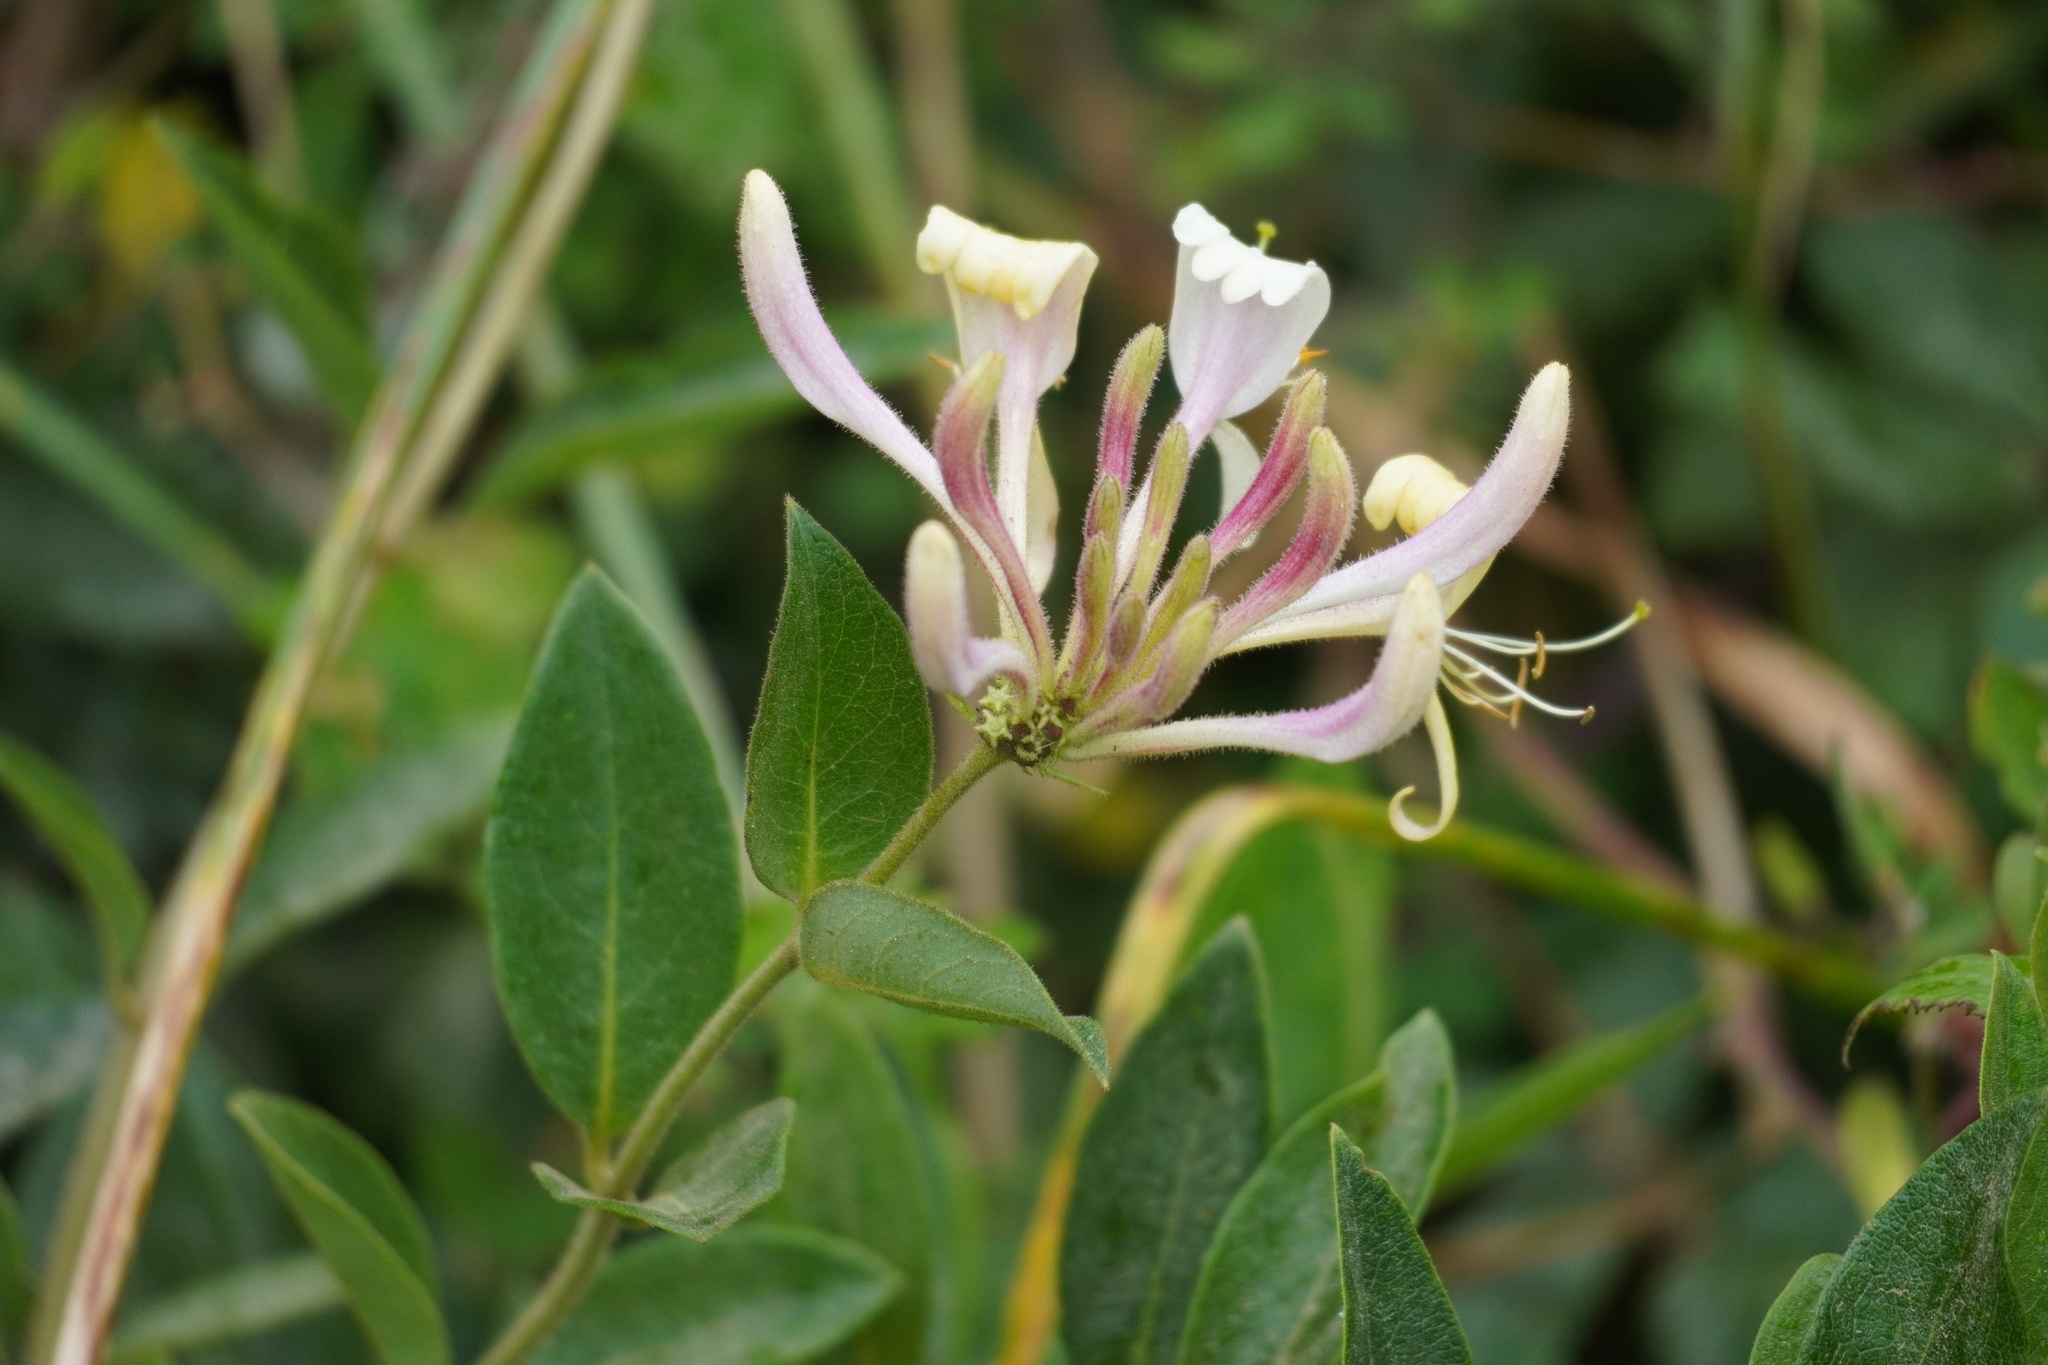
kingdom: Plantae
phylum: Tracheophyta
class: Magnoliopsida
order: Dipsacales
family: Caprifoliaceae
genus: Lonicera
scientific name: Lonicera periclymenum
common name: European honeysuckle
